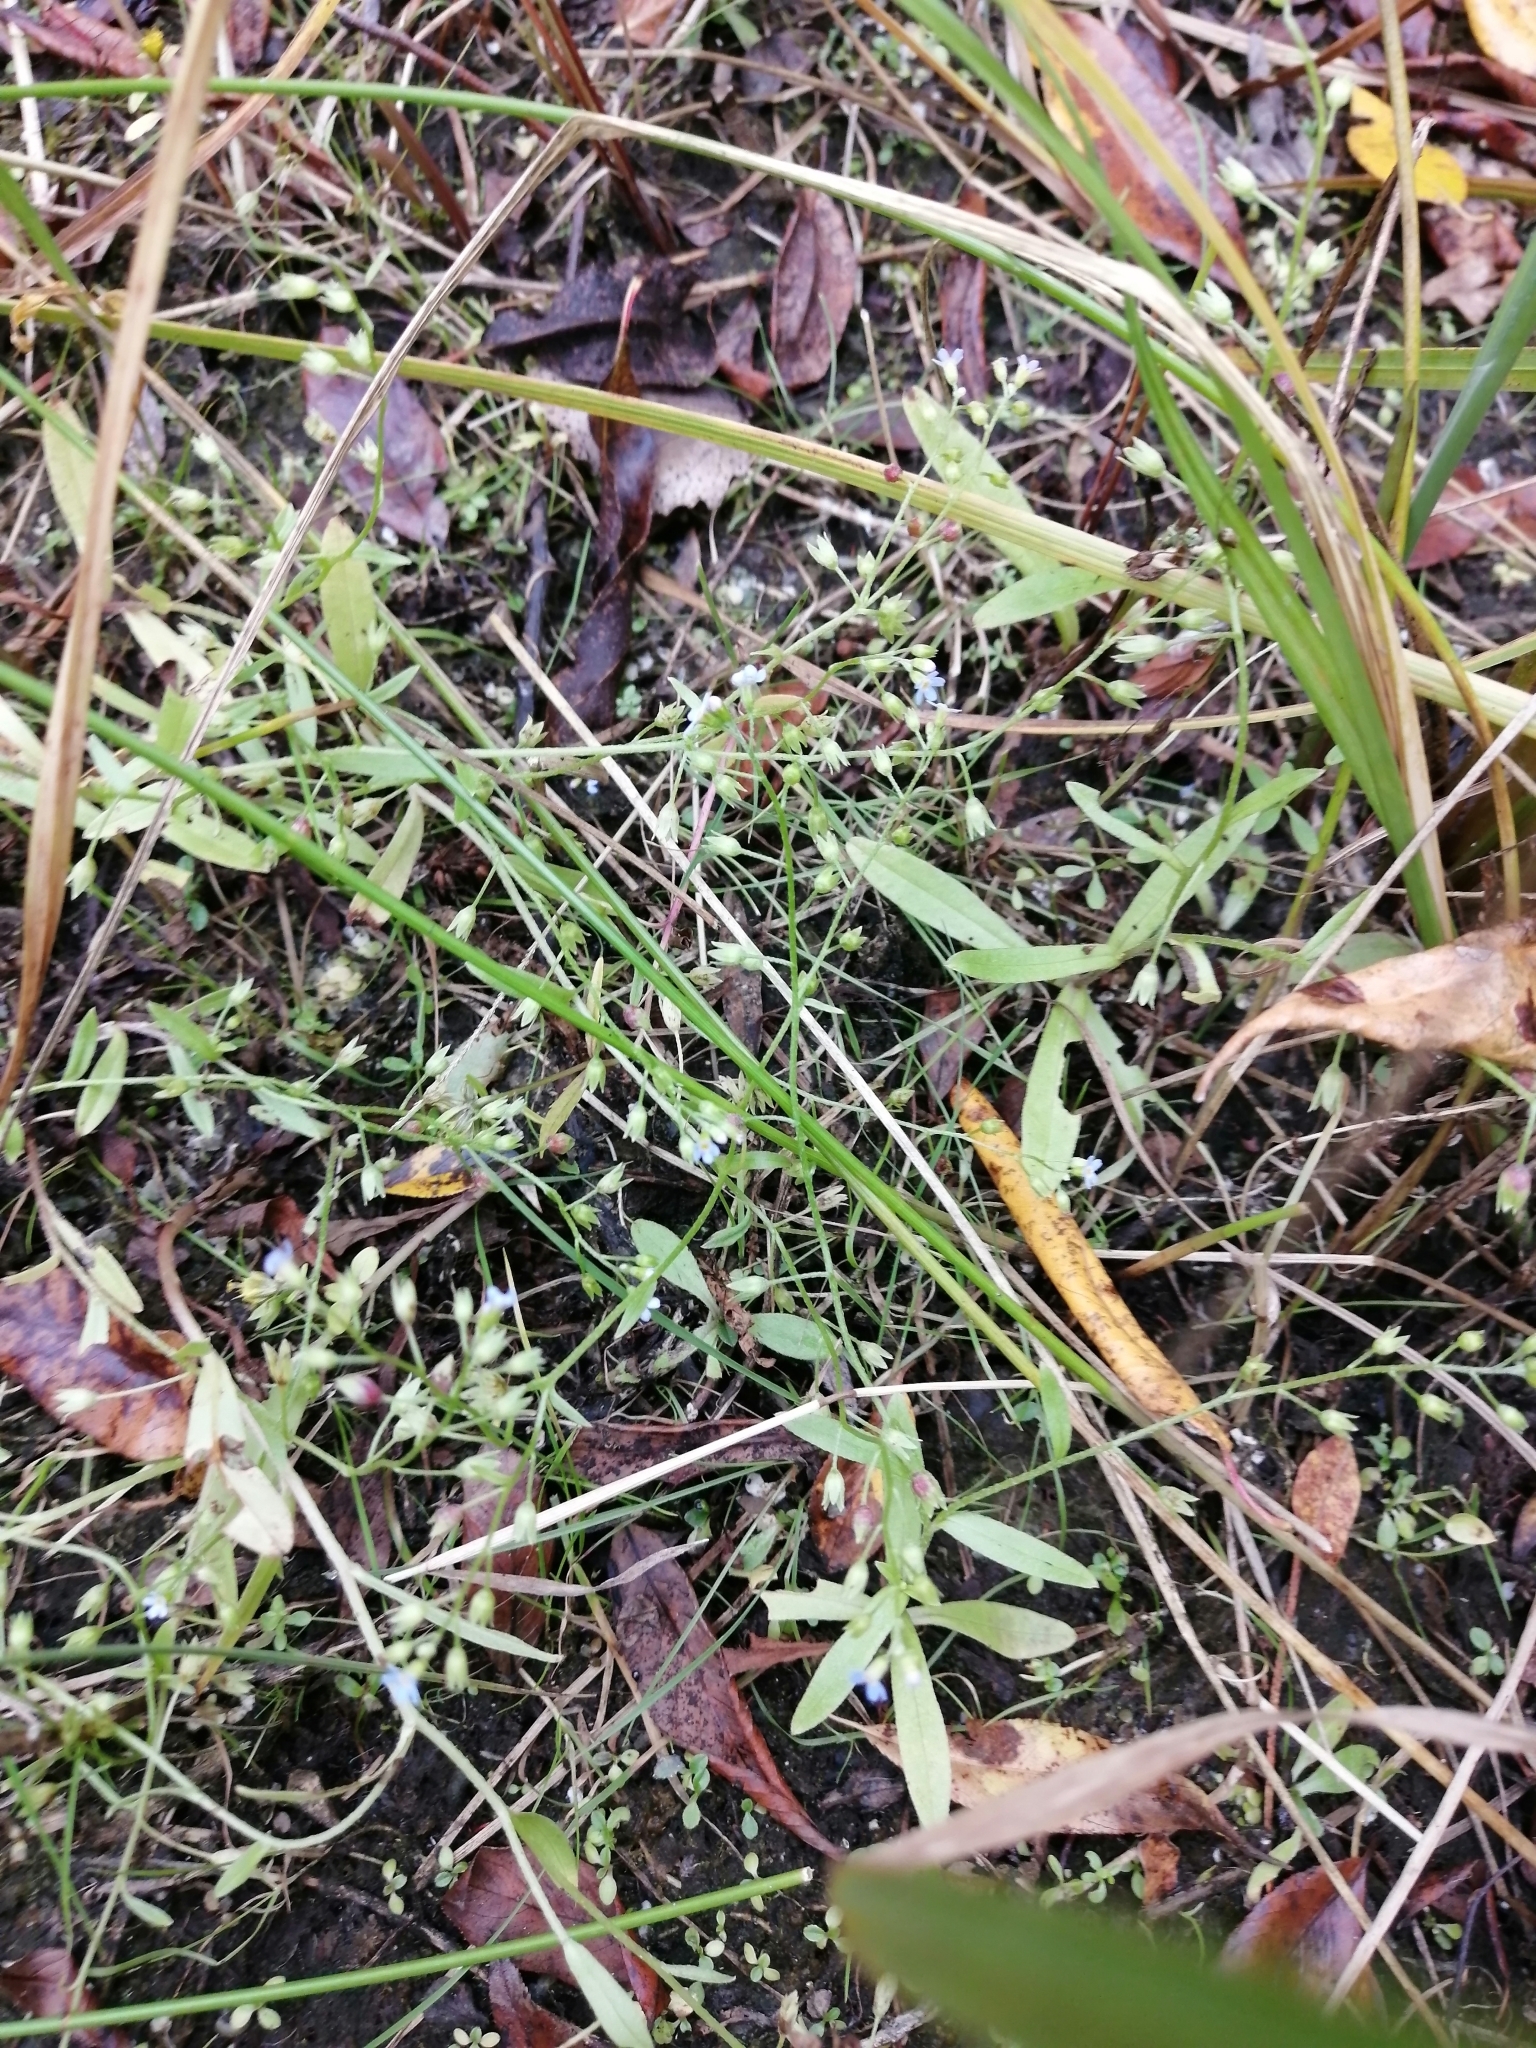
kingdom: Plantae
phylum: Tracheophyta
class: Magnoliopsida
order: Boraginales
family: Boraginaceae
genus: Myosotis
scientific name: Myosotis laxa
